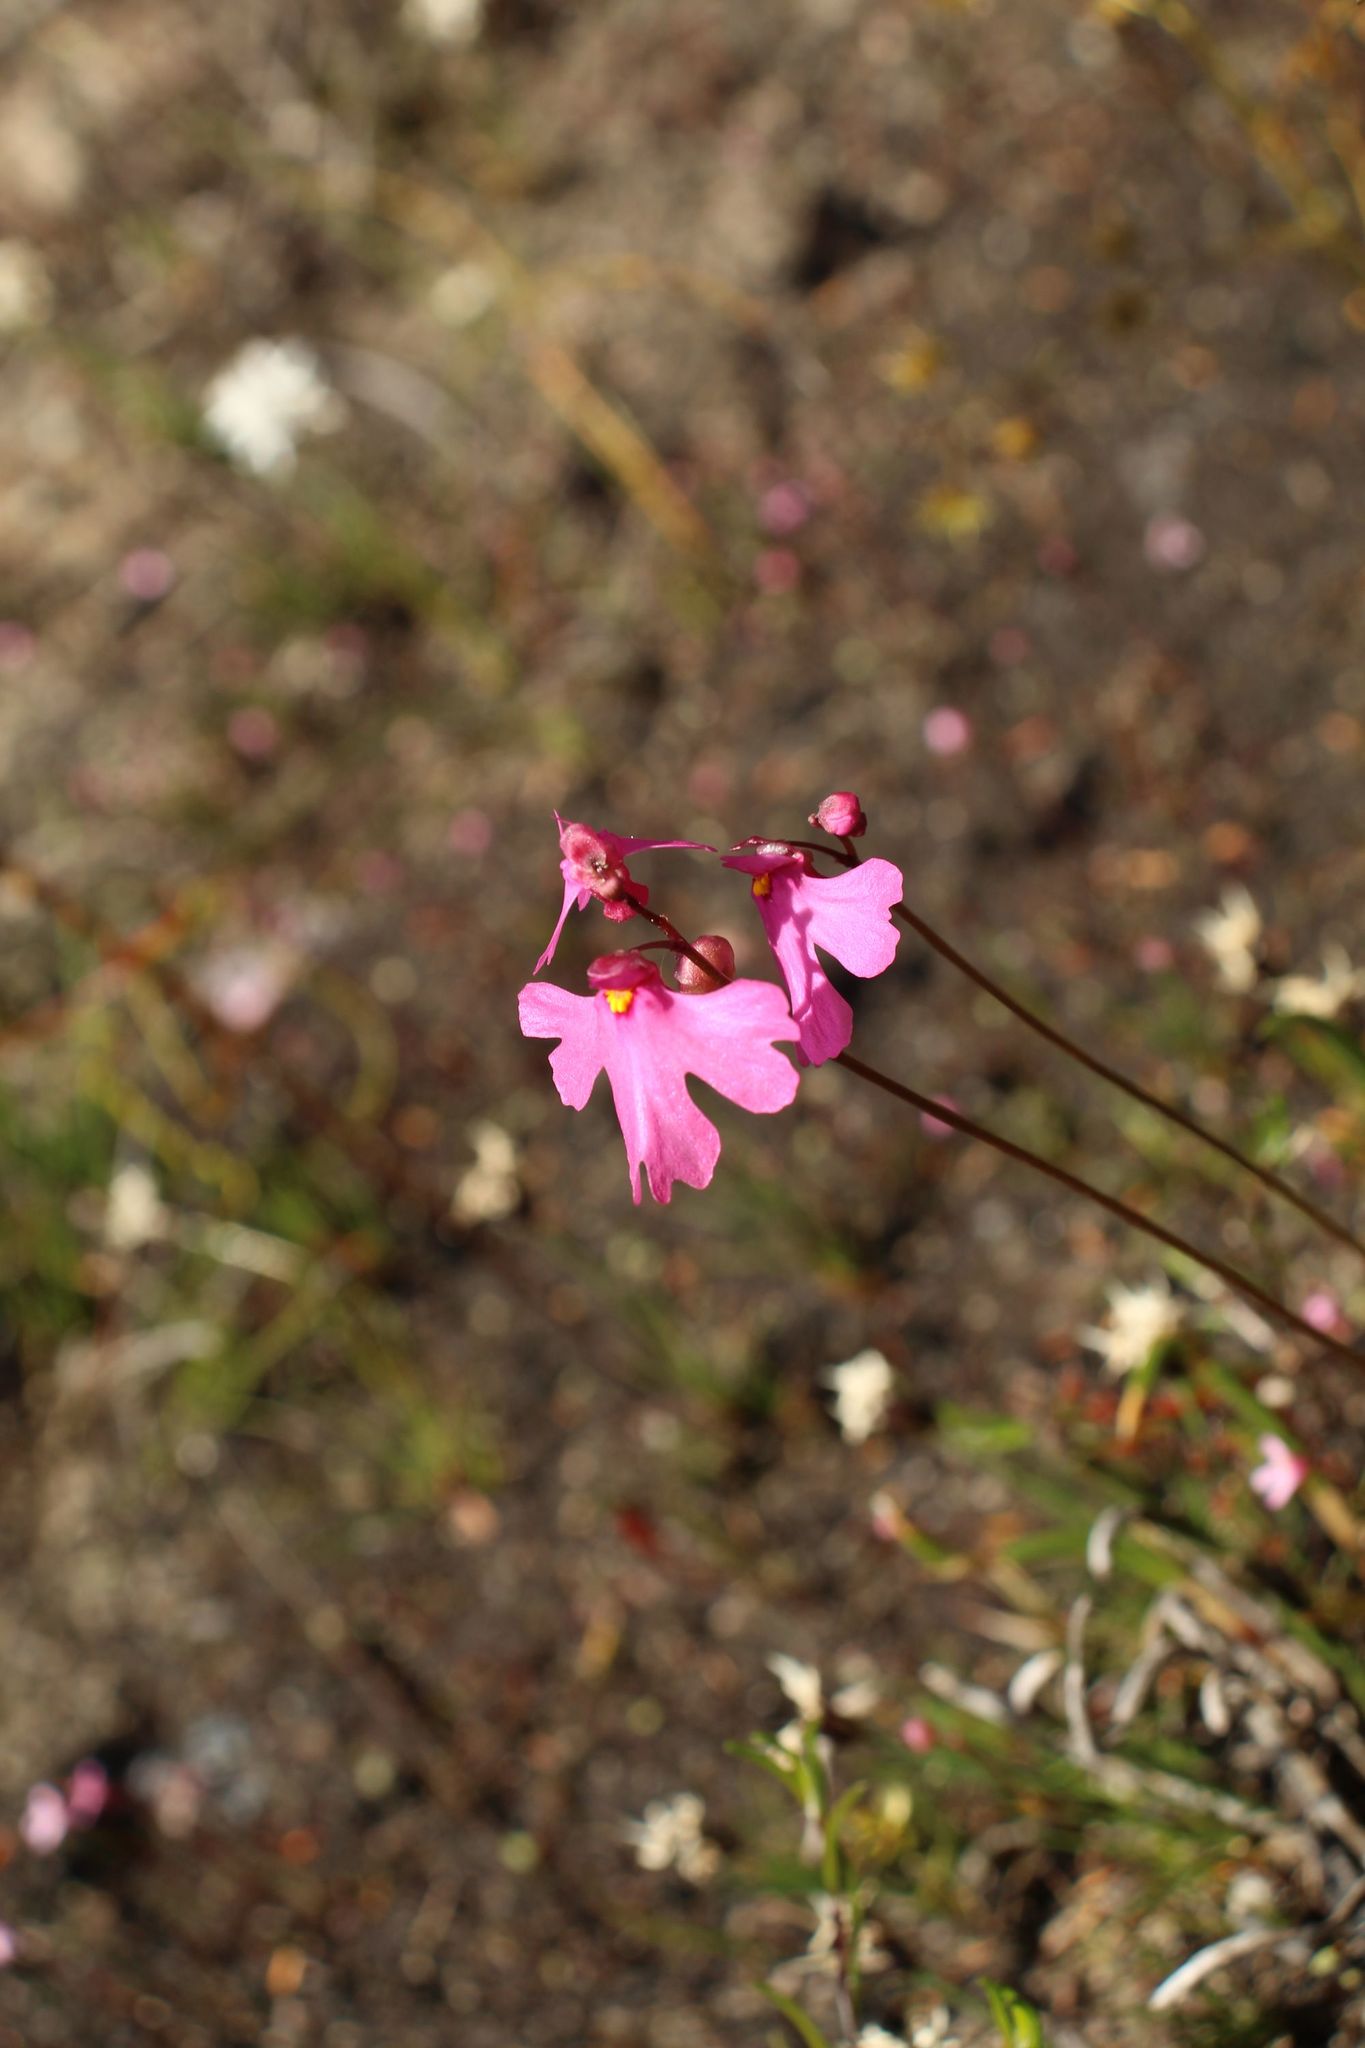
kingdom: Plantae
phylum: Tracheophyta
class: Magnoliopsida
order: Lamiales
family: Lentibulariaceae
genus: Utricularia
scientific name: Utricularia multifida
